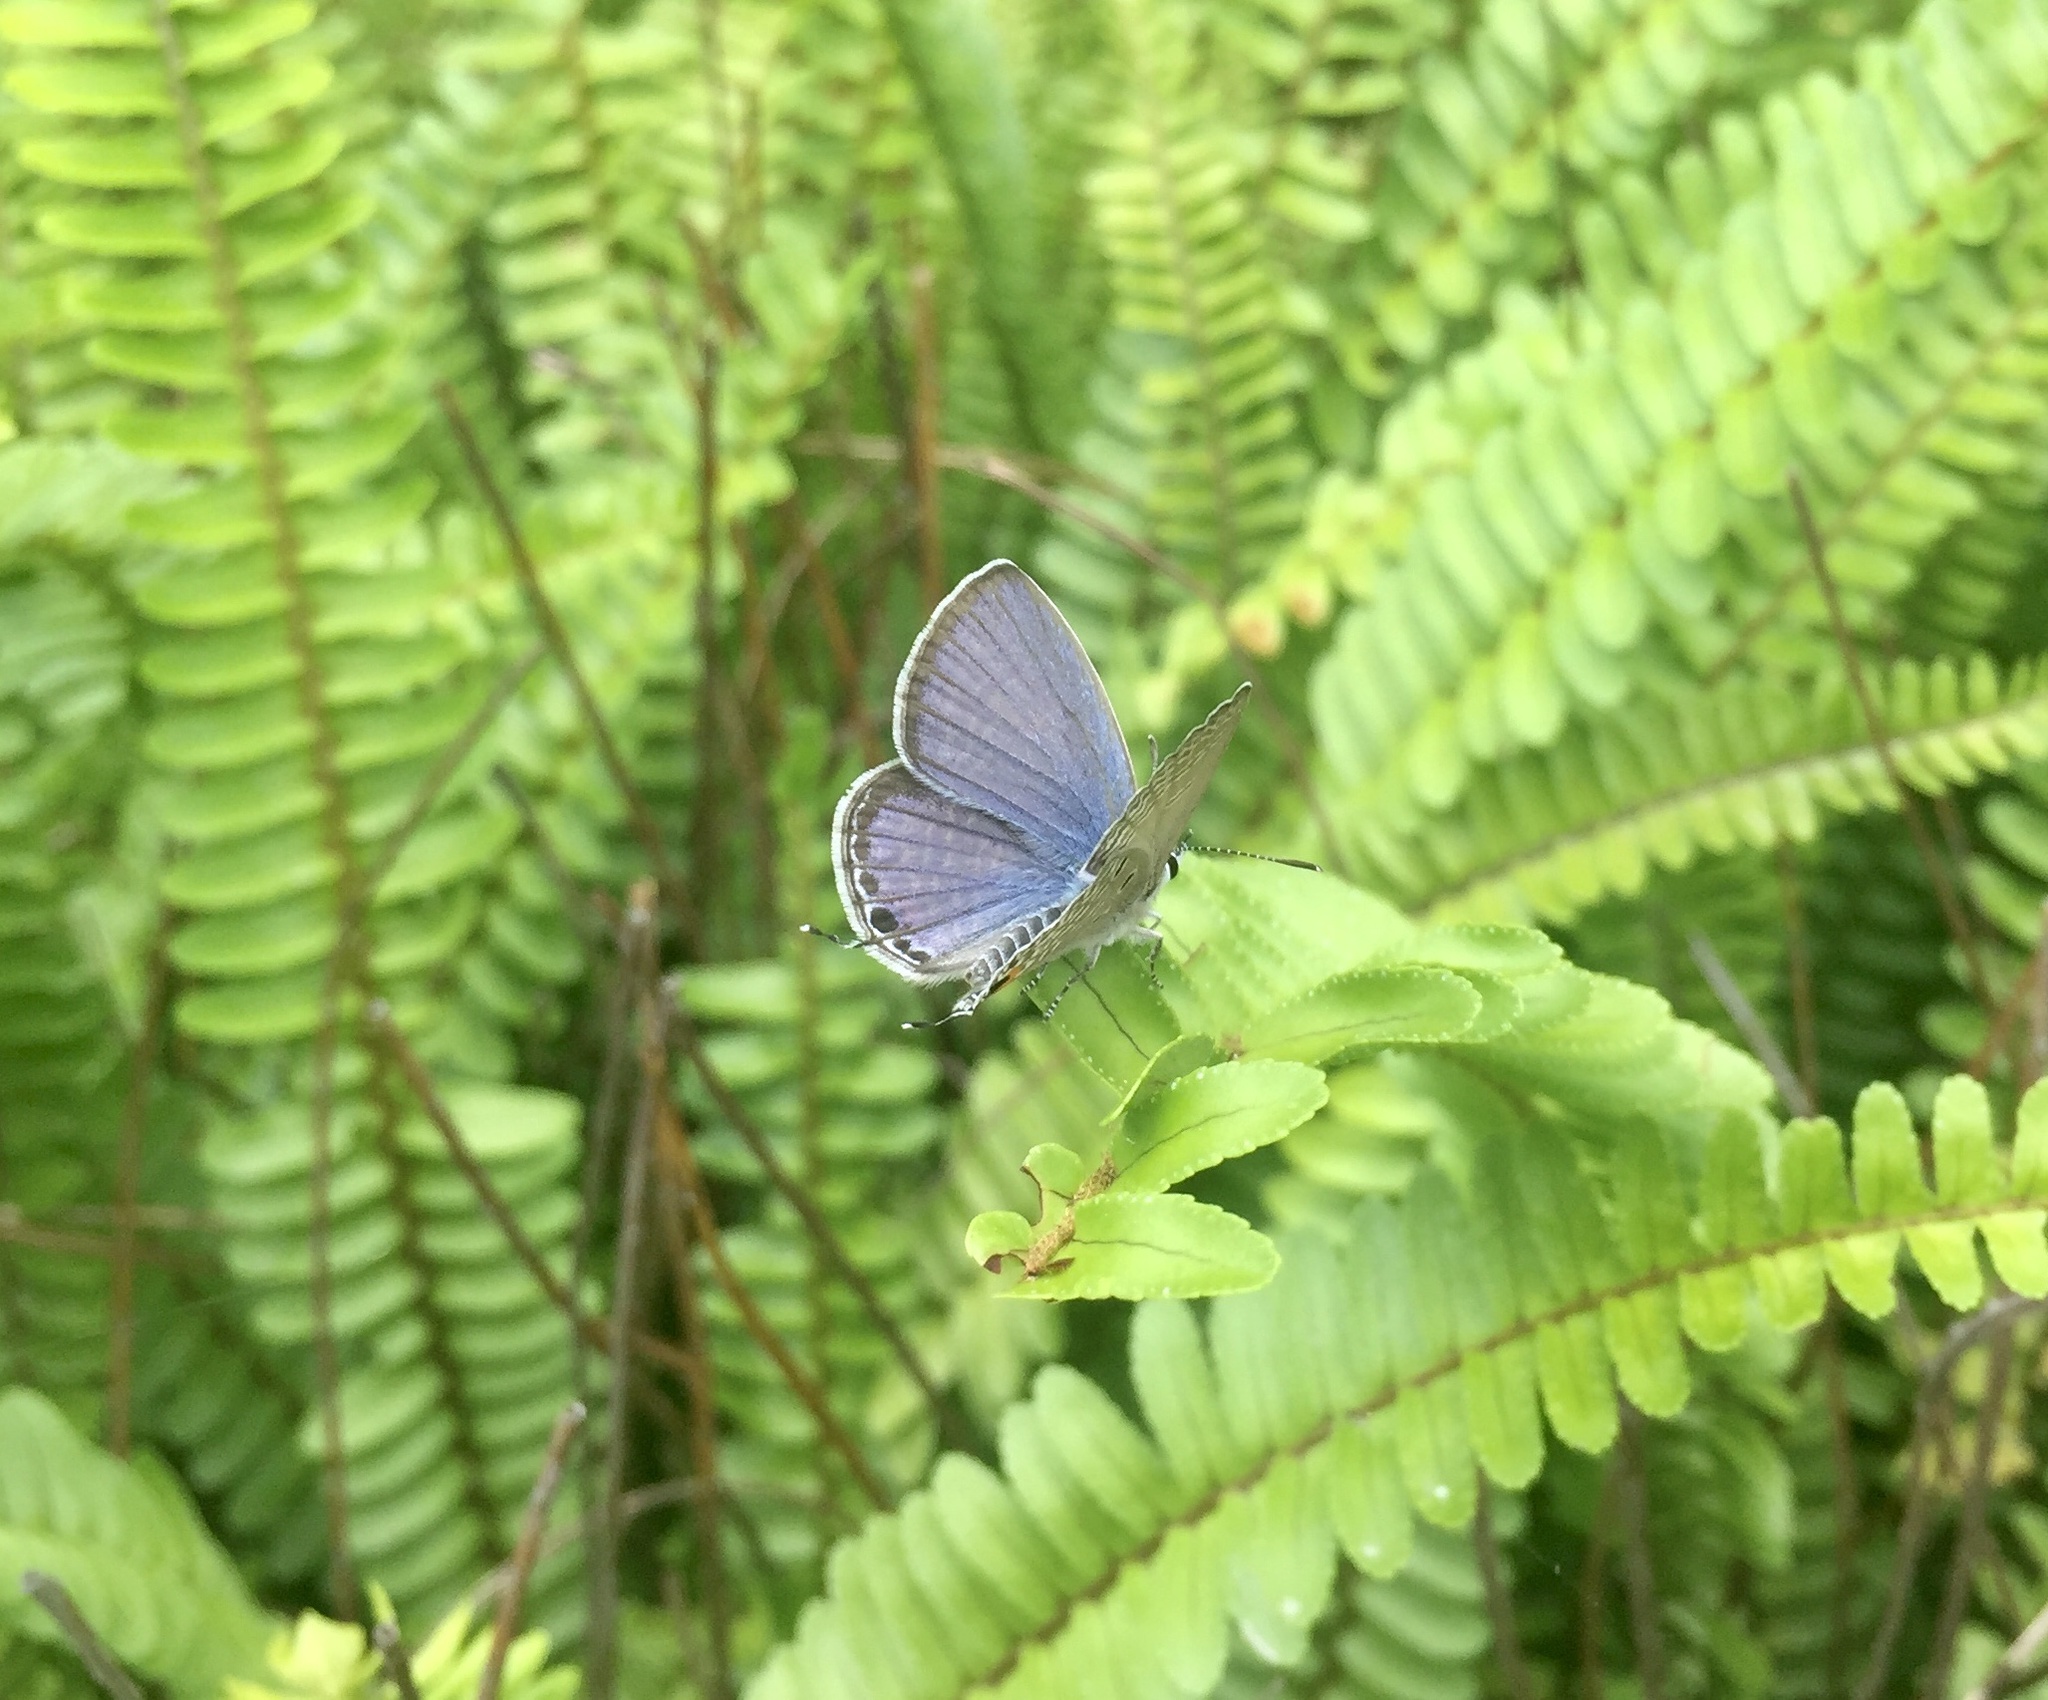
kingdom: Animalia
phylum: Arthropoda
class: Insecta
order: Lepidoptera
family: Lycaenidae
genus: Luthrodes
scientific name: Luthrodes pandava
